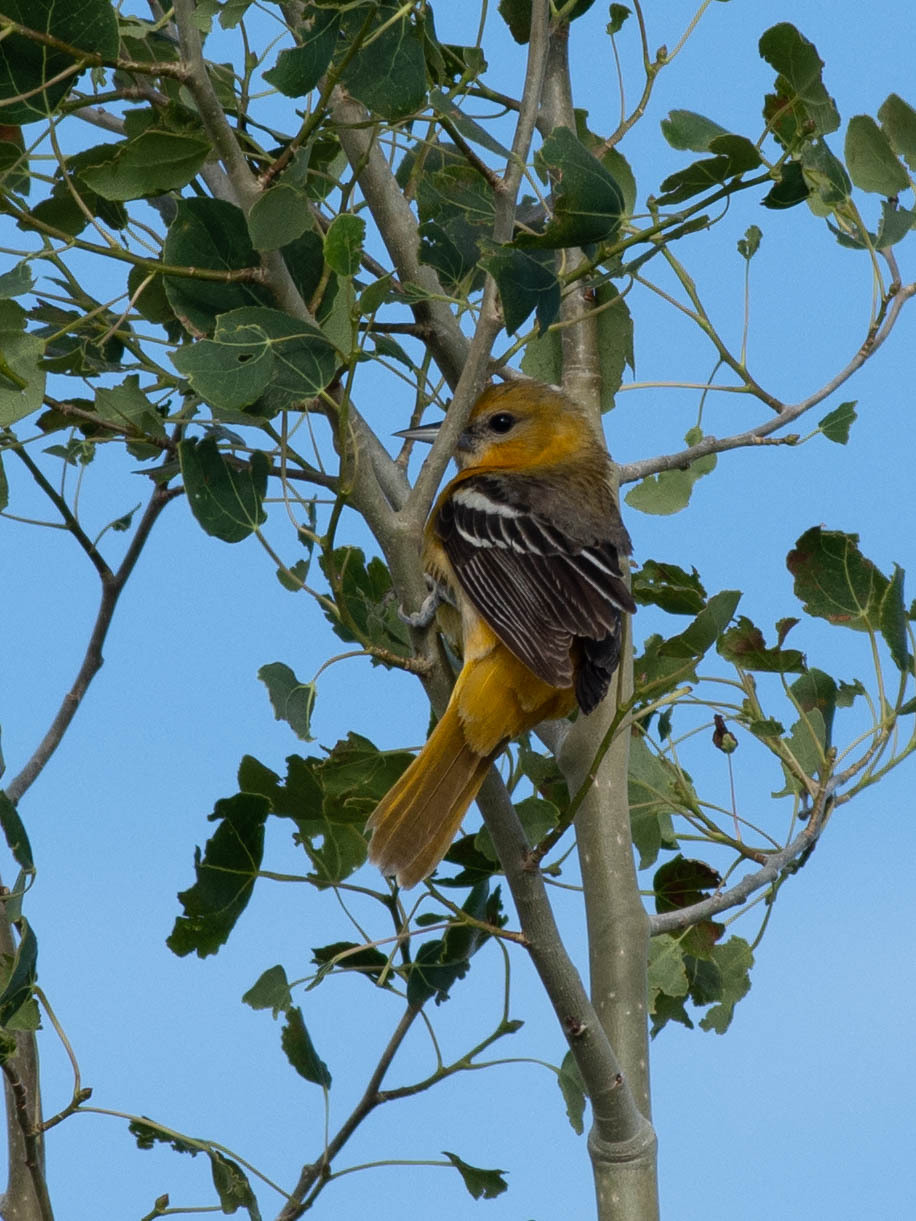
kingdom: Animalia
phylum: Chordata
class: Aves
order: Passeriformes
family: Icteridae
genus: Icterus
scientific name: Icterus galbula
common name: Baltimore oriole
